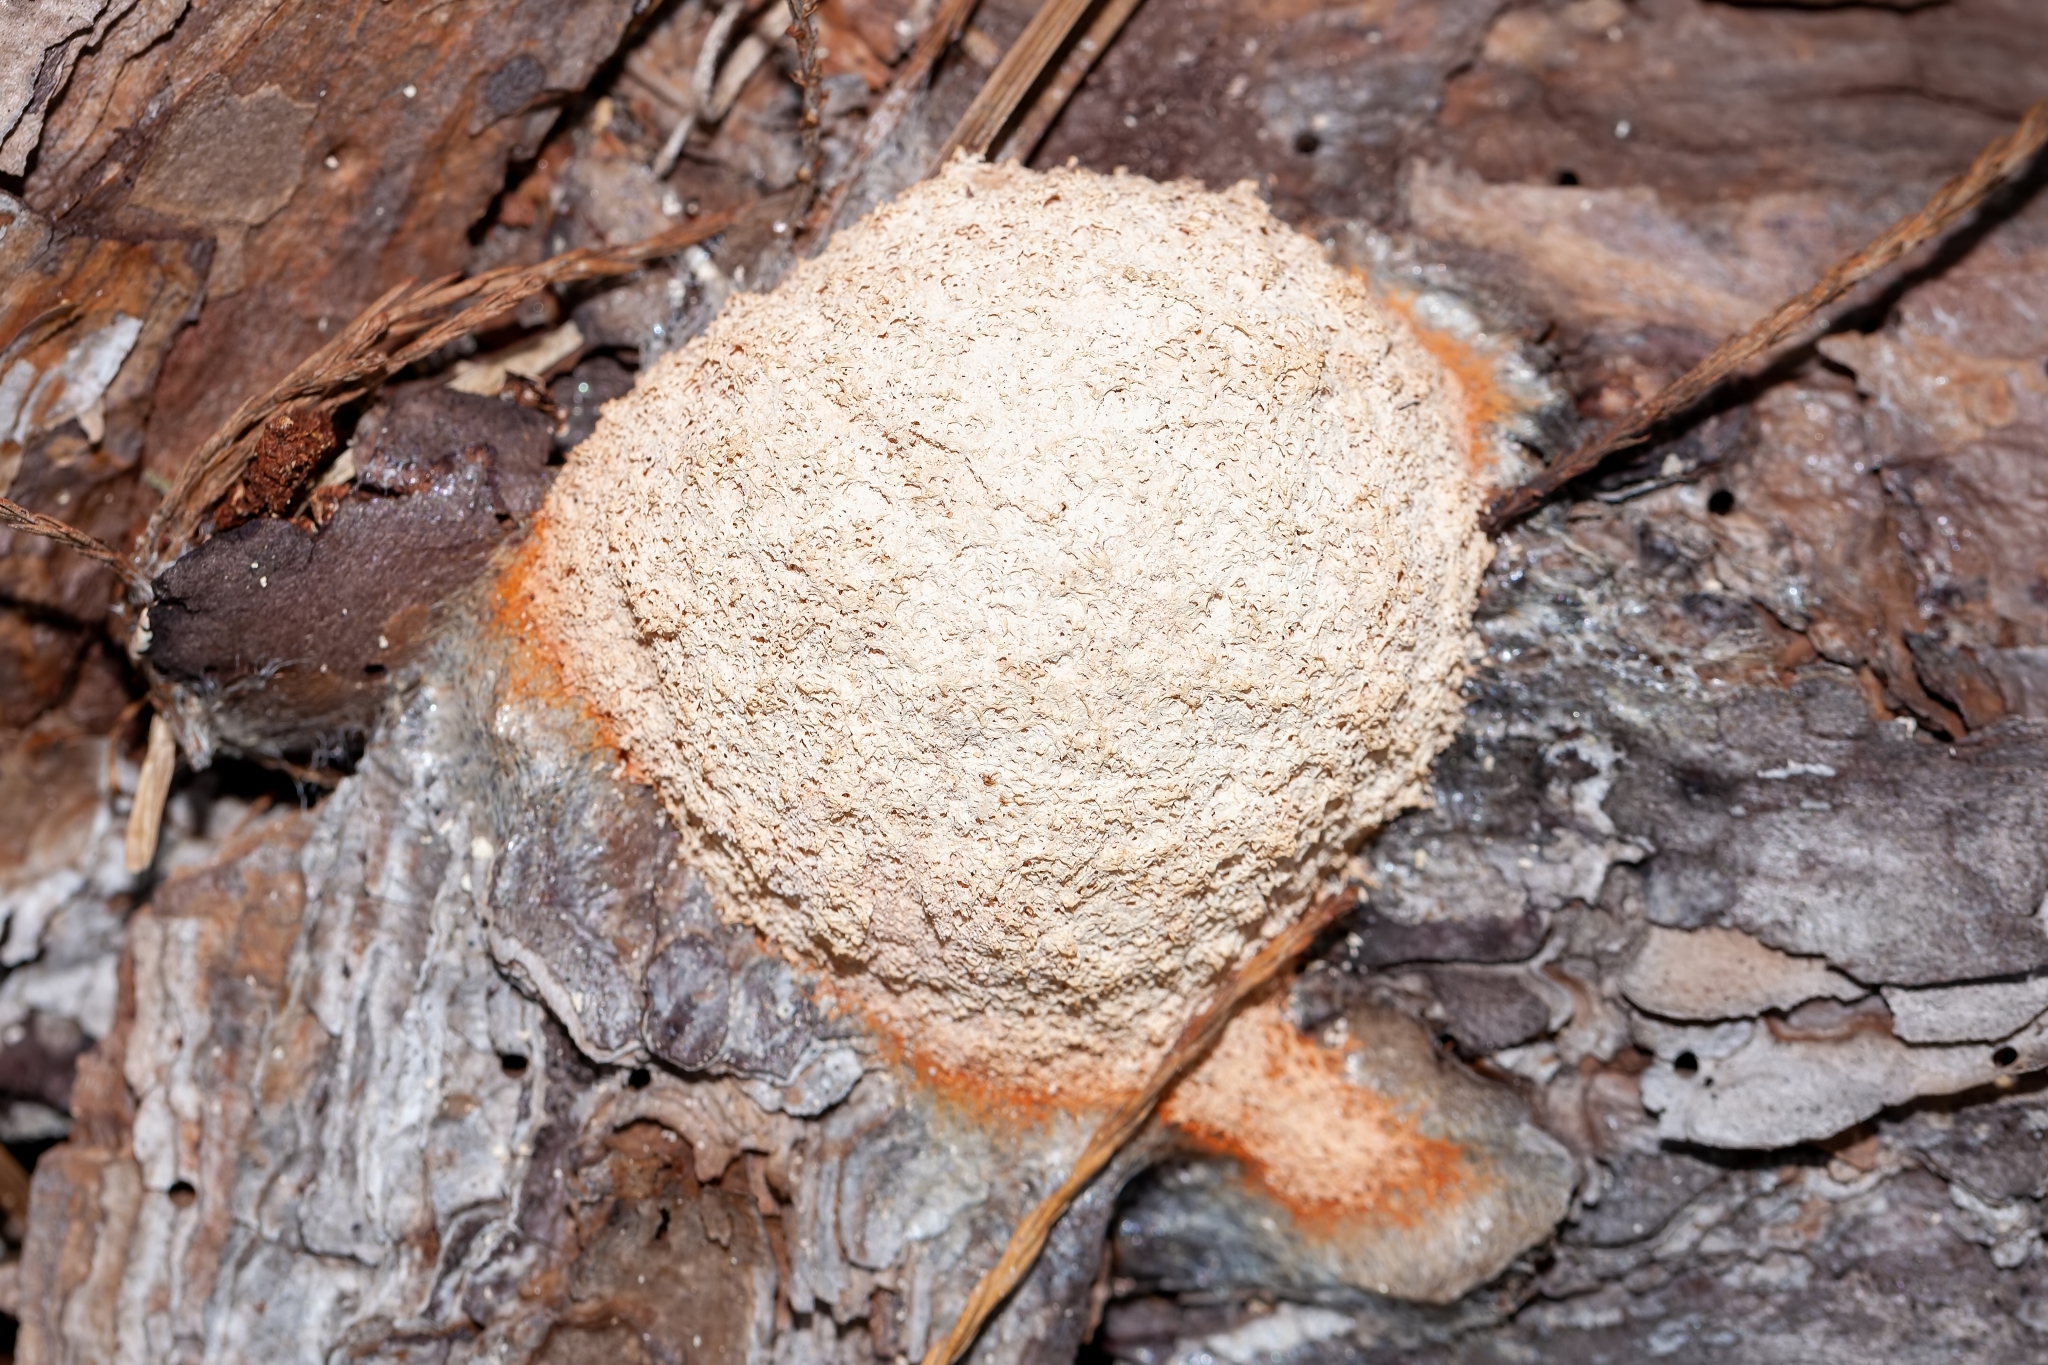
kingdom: Protozoa
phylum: Mycetozoa
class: Myxomycetes
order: Physarales
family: Physaraceae
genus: Fuligo
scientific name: Fuligo septica
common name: Dog vomit slime mold
